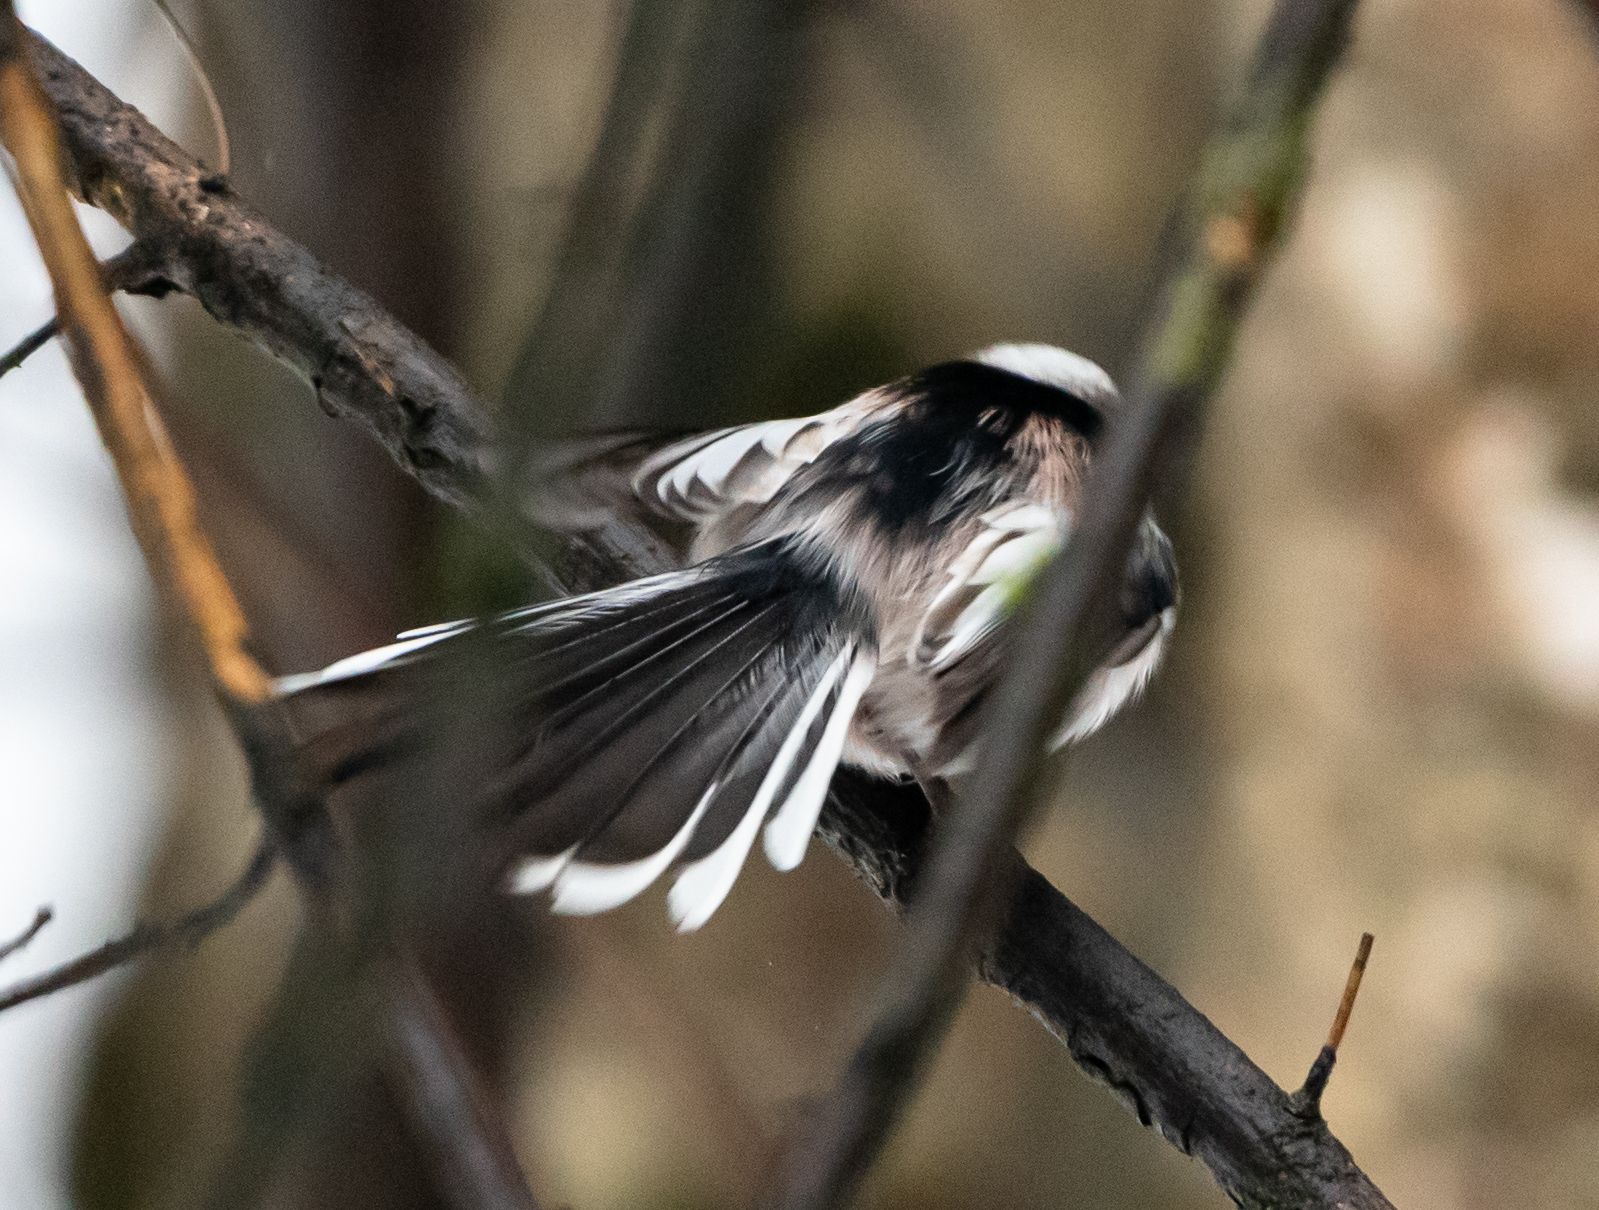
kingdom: Animalia
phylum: Chordata
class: Aves
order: Passeriformes
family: Aegithalidae
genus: Aegithalos
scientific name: Aegithalos caudatus
